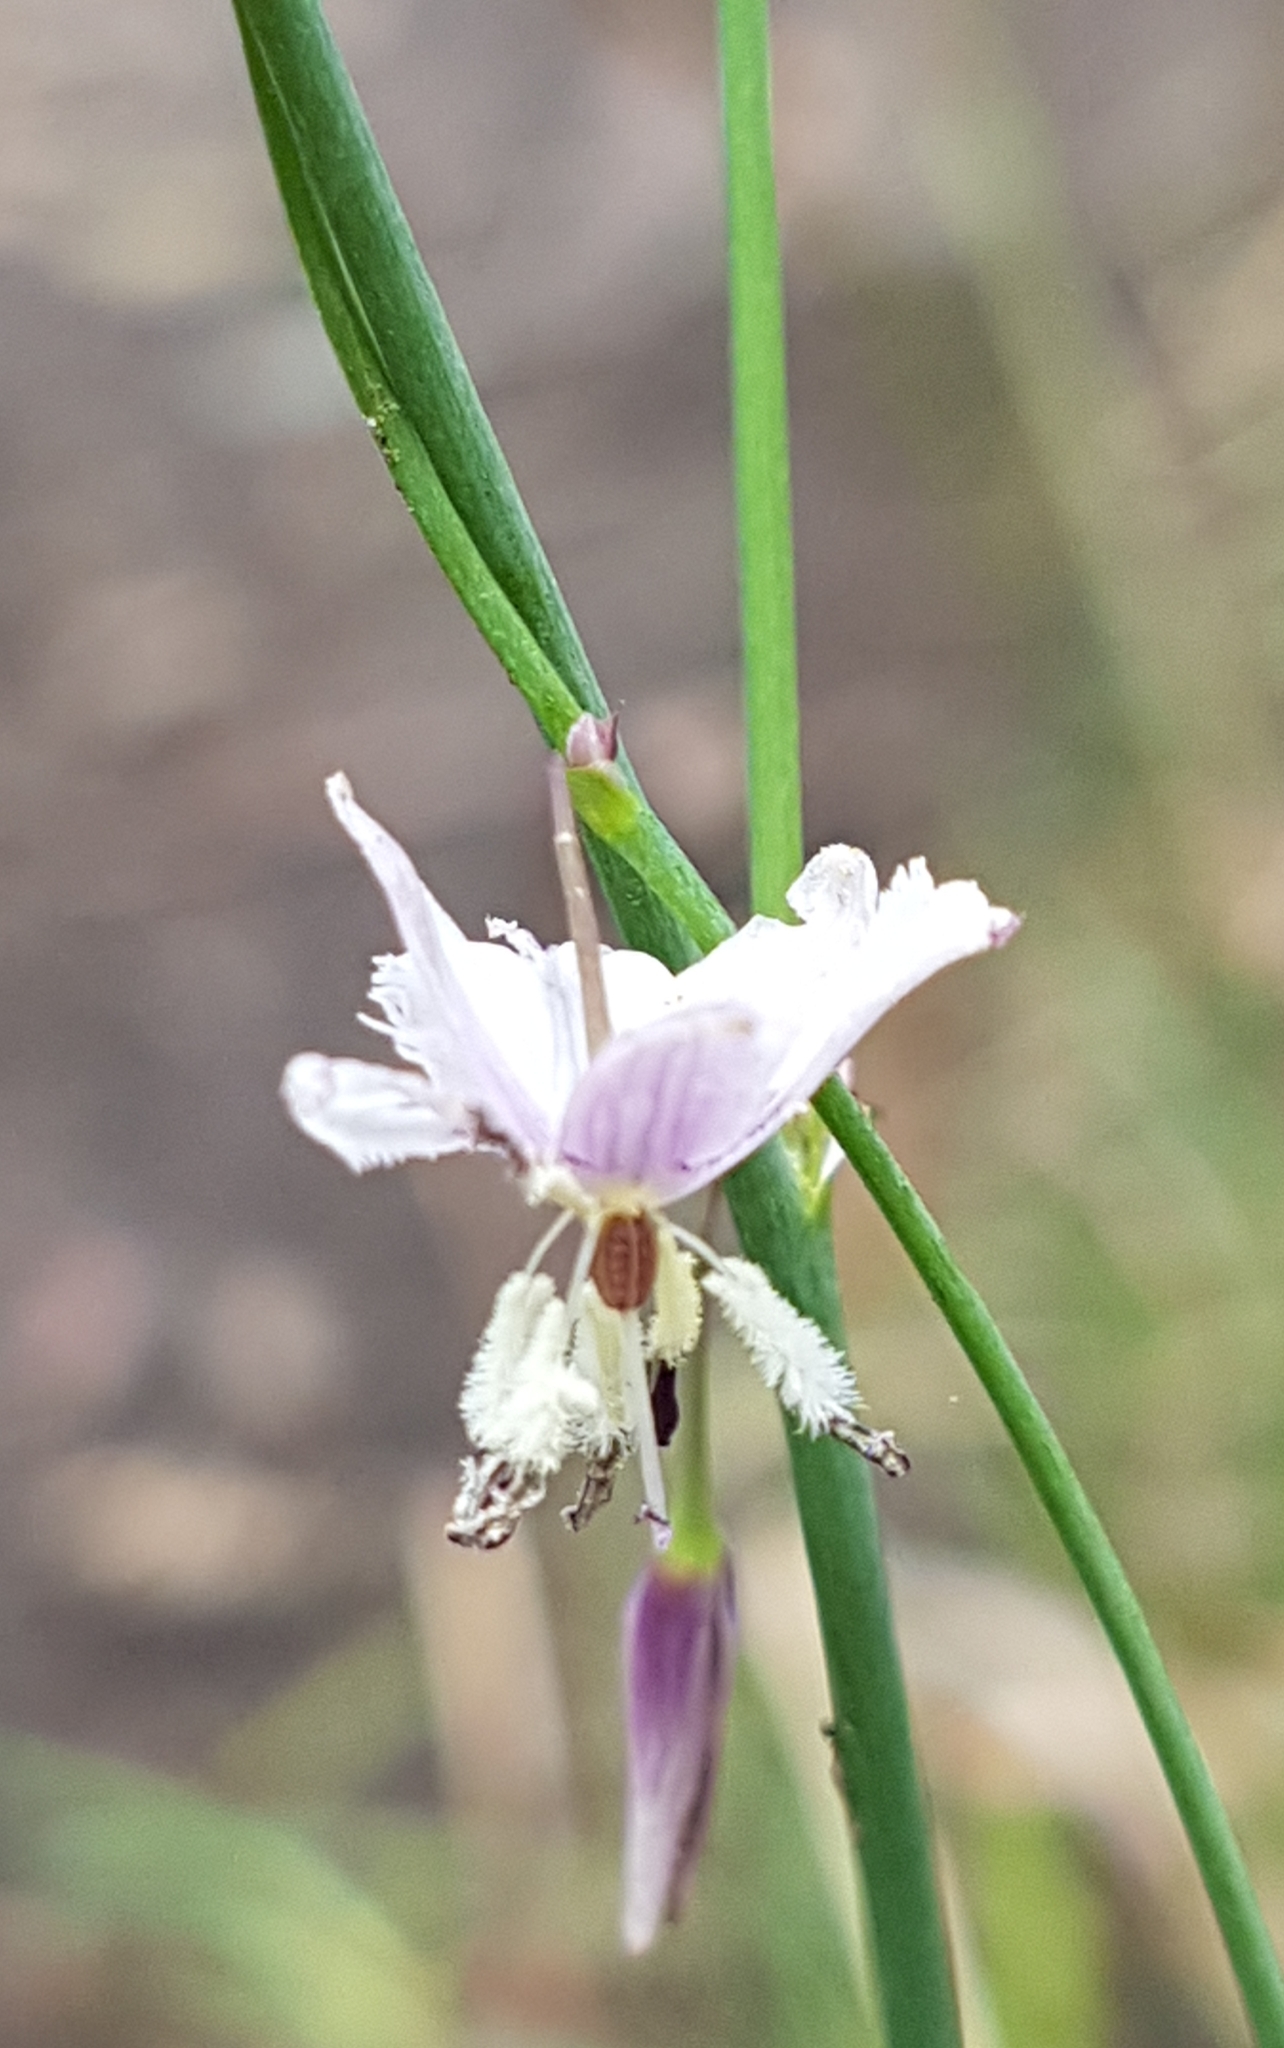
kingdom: Plantae
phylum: Tracheophyta
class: Liliopsida
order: Asparagales
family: Asparagaceae
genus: Arthropodium
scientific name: Arthropodium milleflorum
